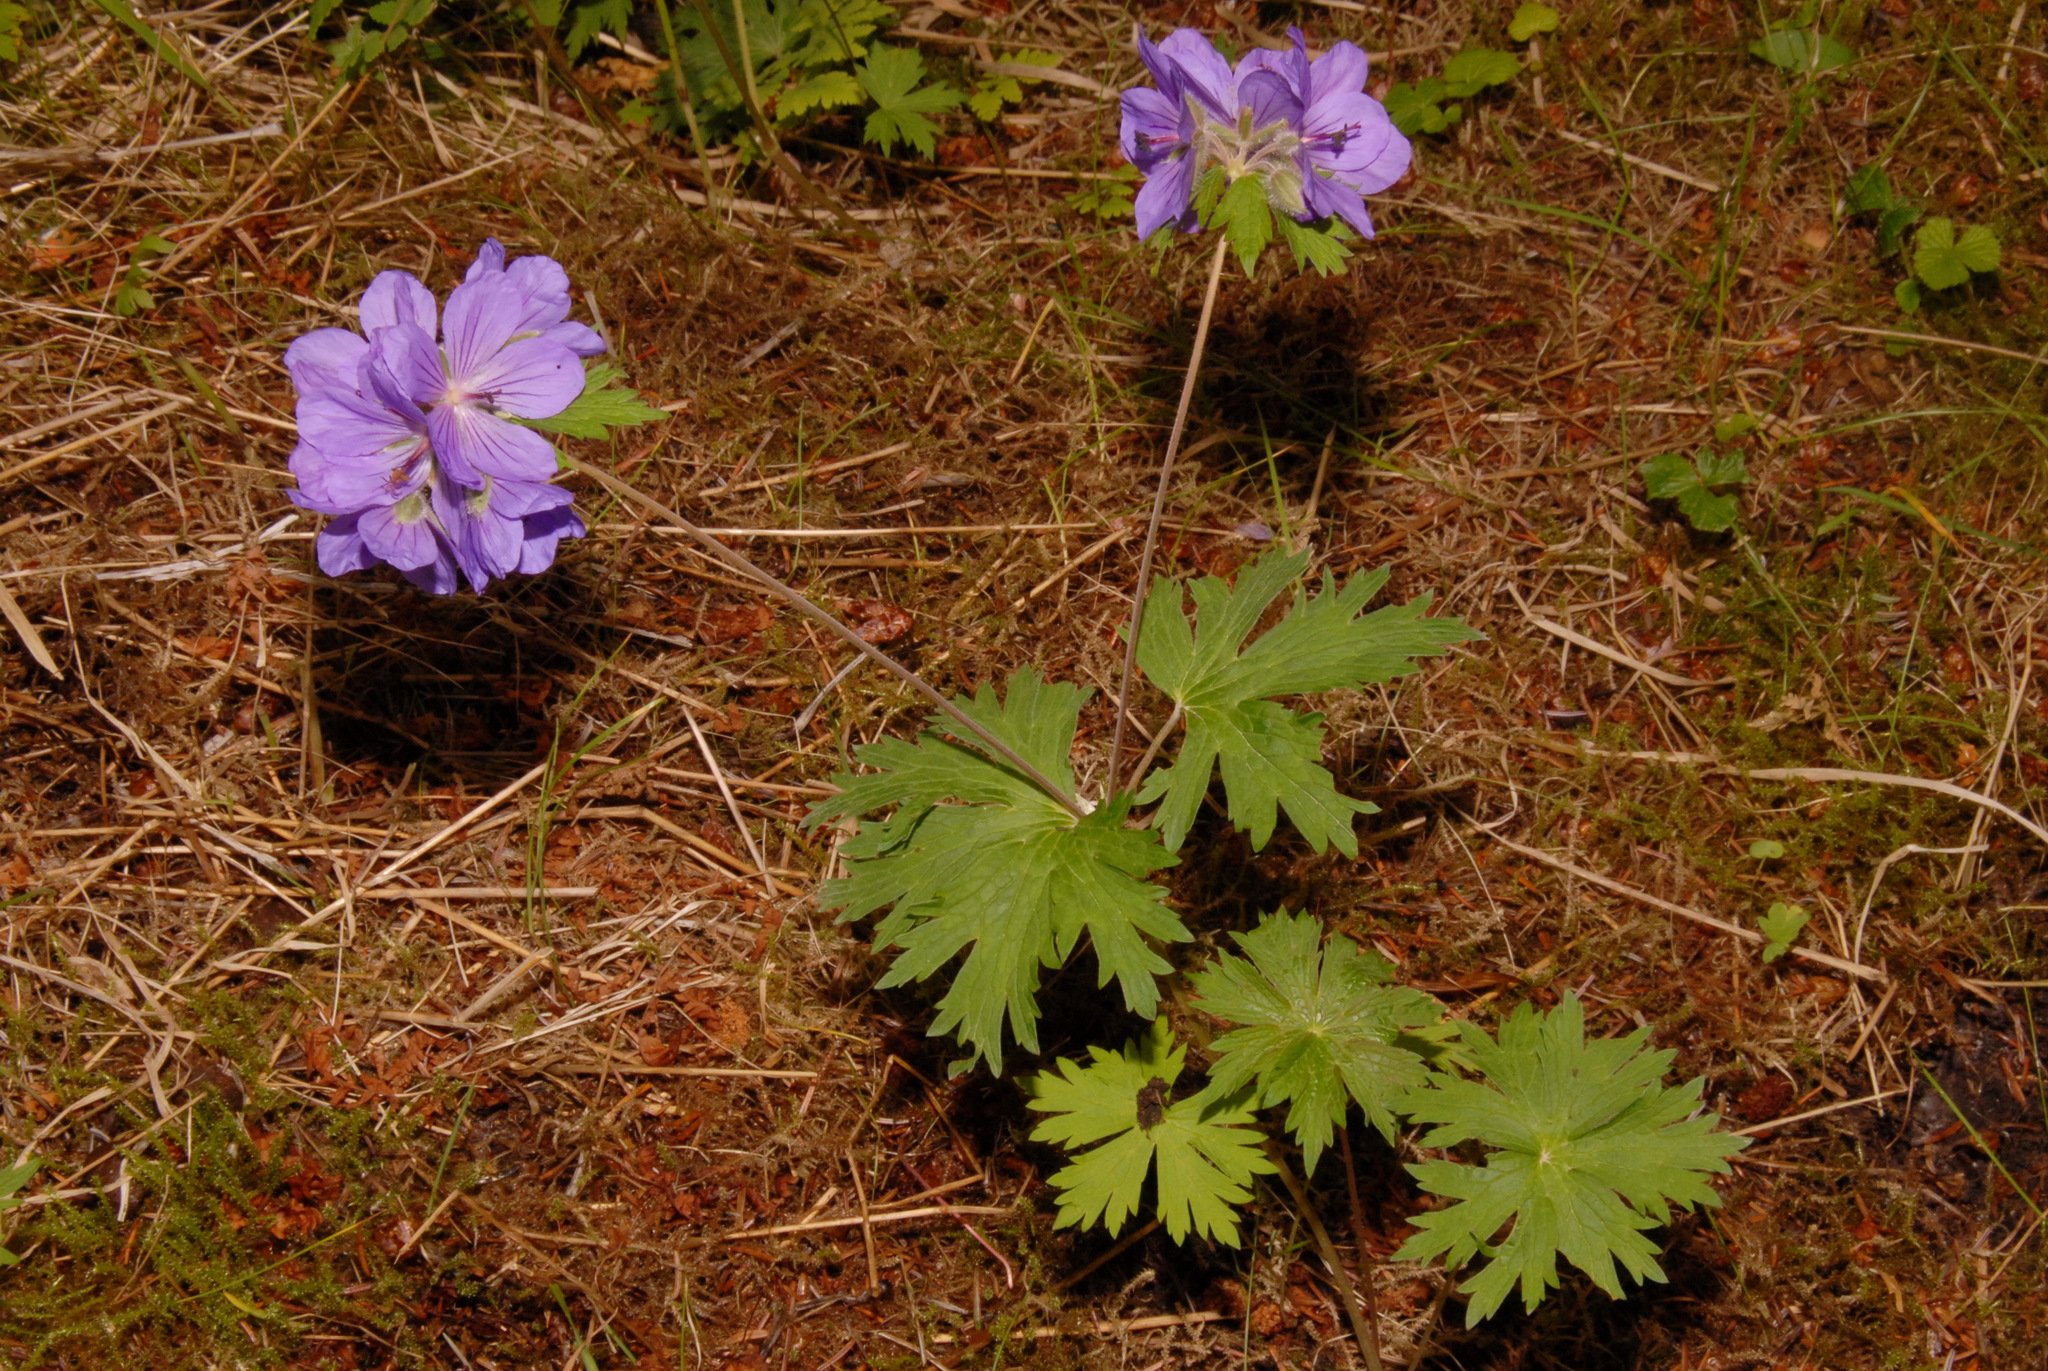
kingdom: Plantae
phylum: Tracheophyta
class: Magnoliopsida
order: Geraniales
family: Geraniaceae
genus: Geranium
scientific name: Geranium erianthum
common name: Northern crane's-bill
